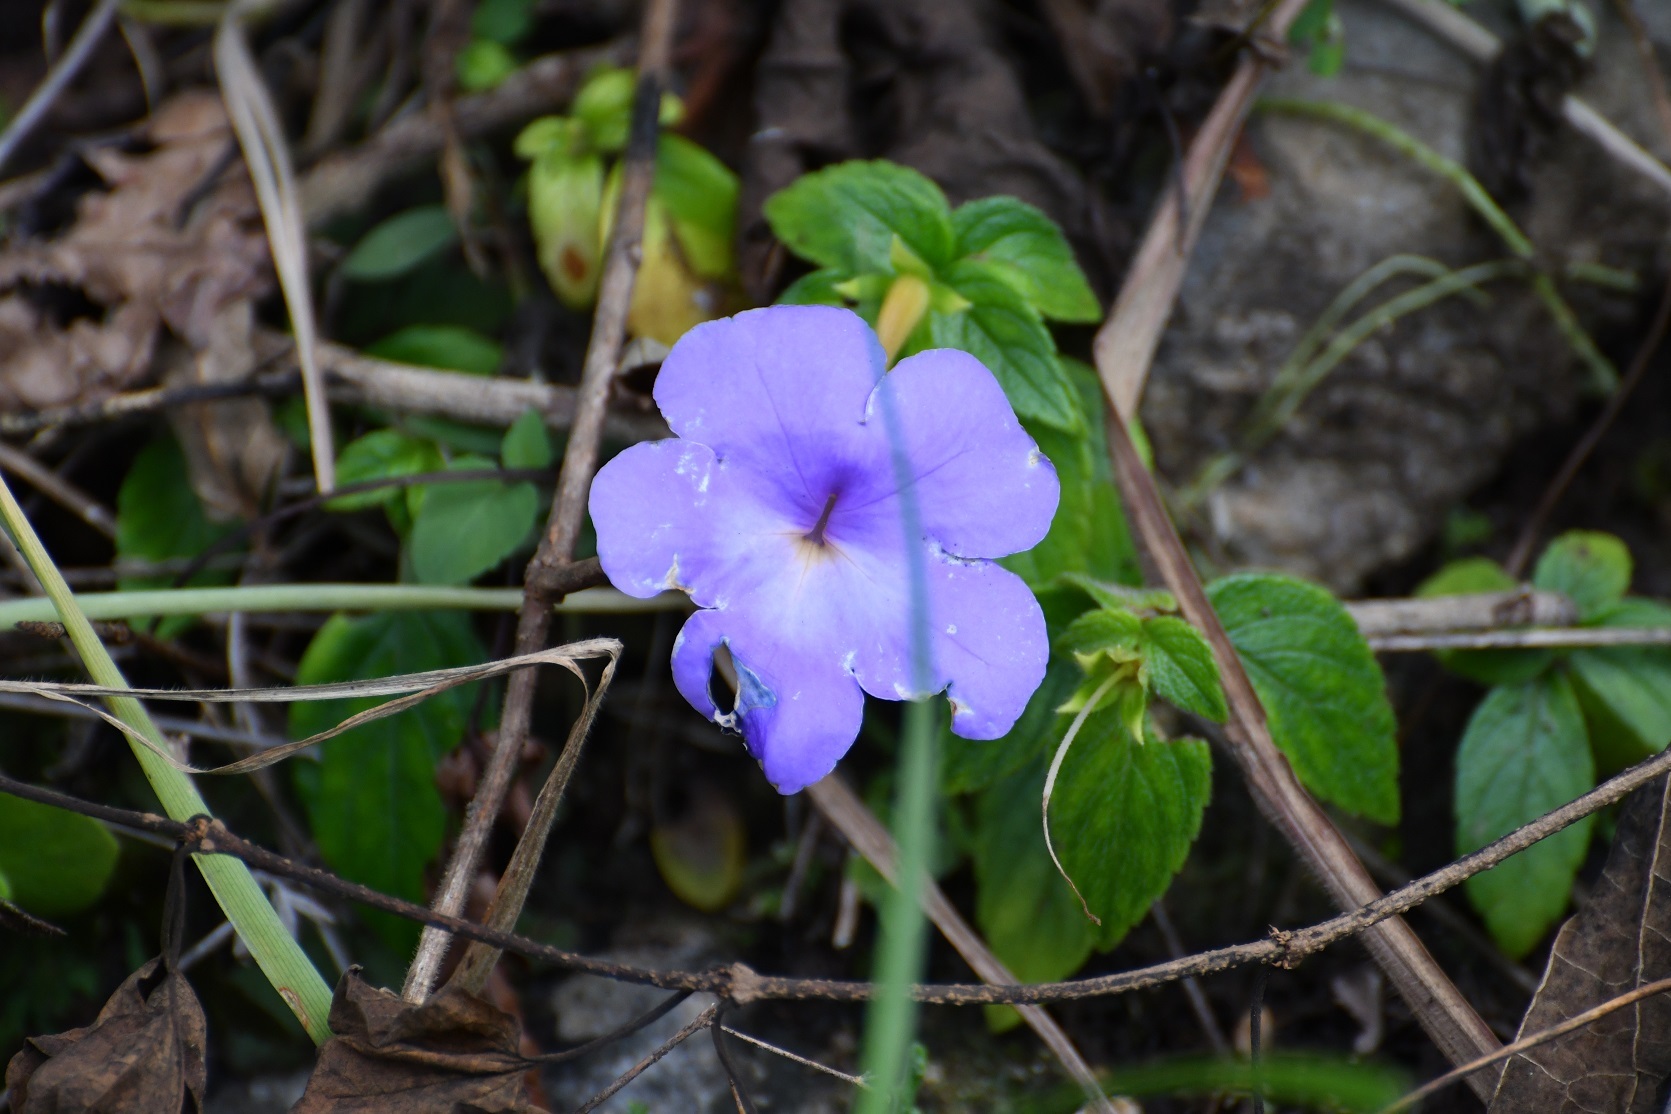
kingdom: Plantae
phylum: Tracheophyta
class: Magnoliopsida
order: Lamiales
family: Gesneriaceae
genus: Achimenes
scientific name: Achimenes longiflora
